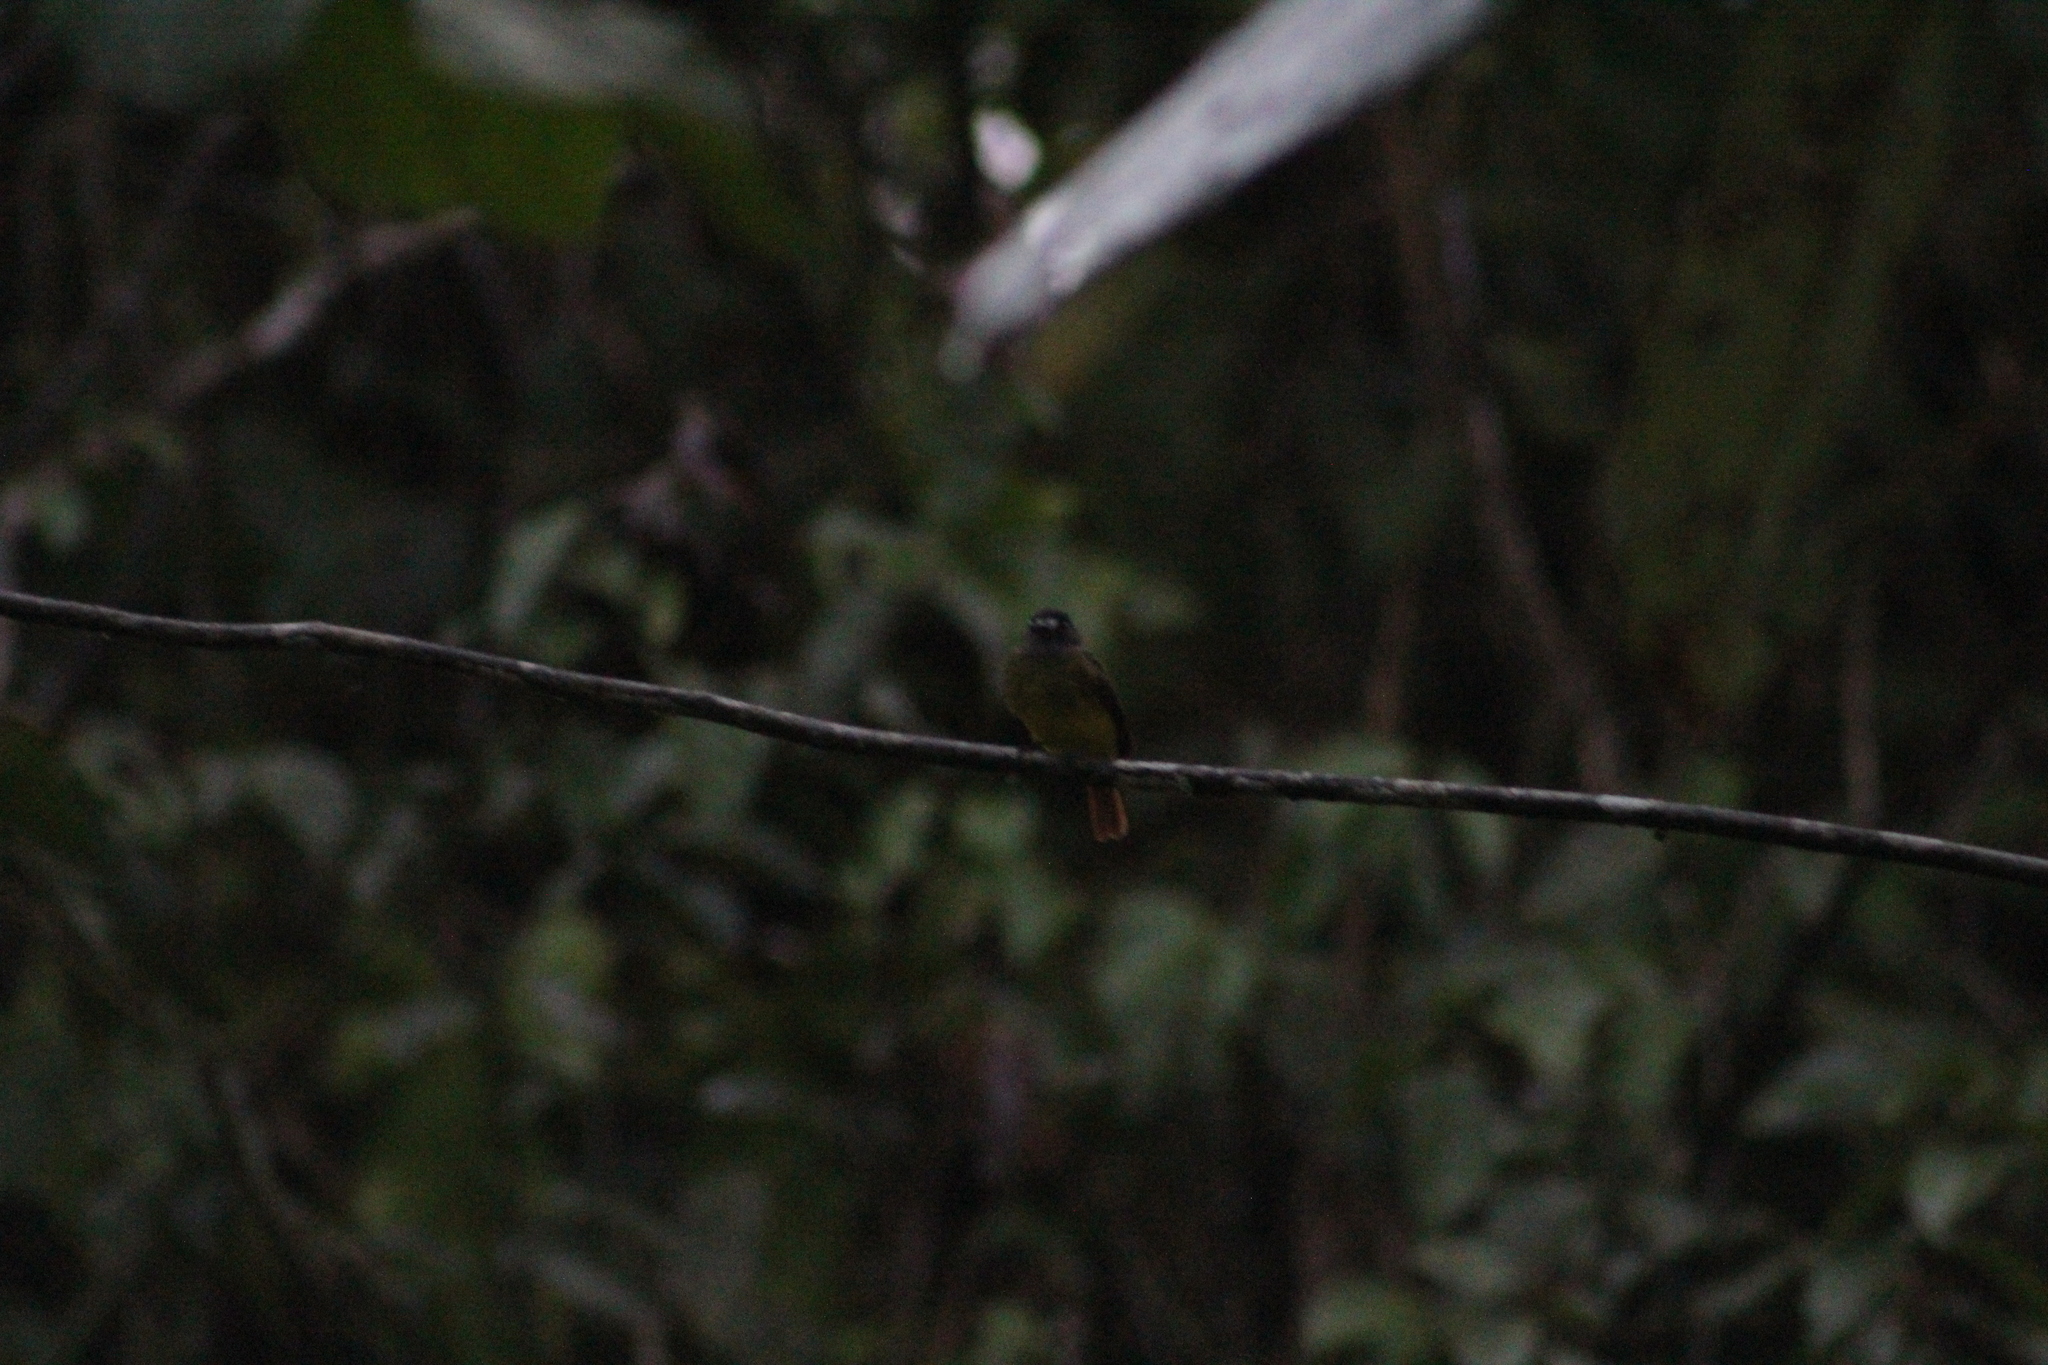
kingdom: Animalia
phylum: Chordata
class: Aves
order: Passeriformes
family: Tyrannidae
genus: Myiotriccus
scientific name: Myiotriccus ornatus
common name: Ornate flycatcher
